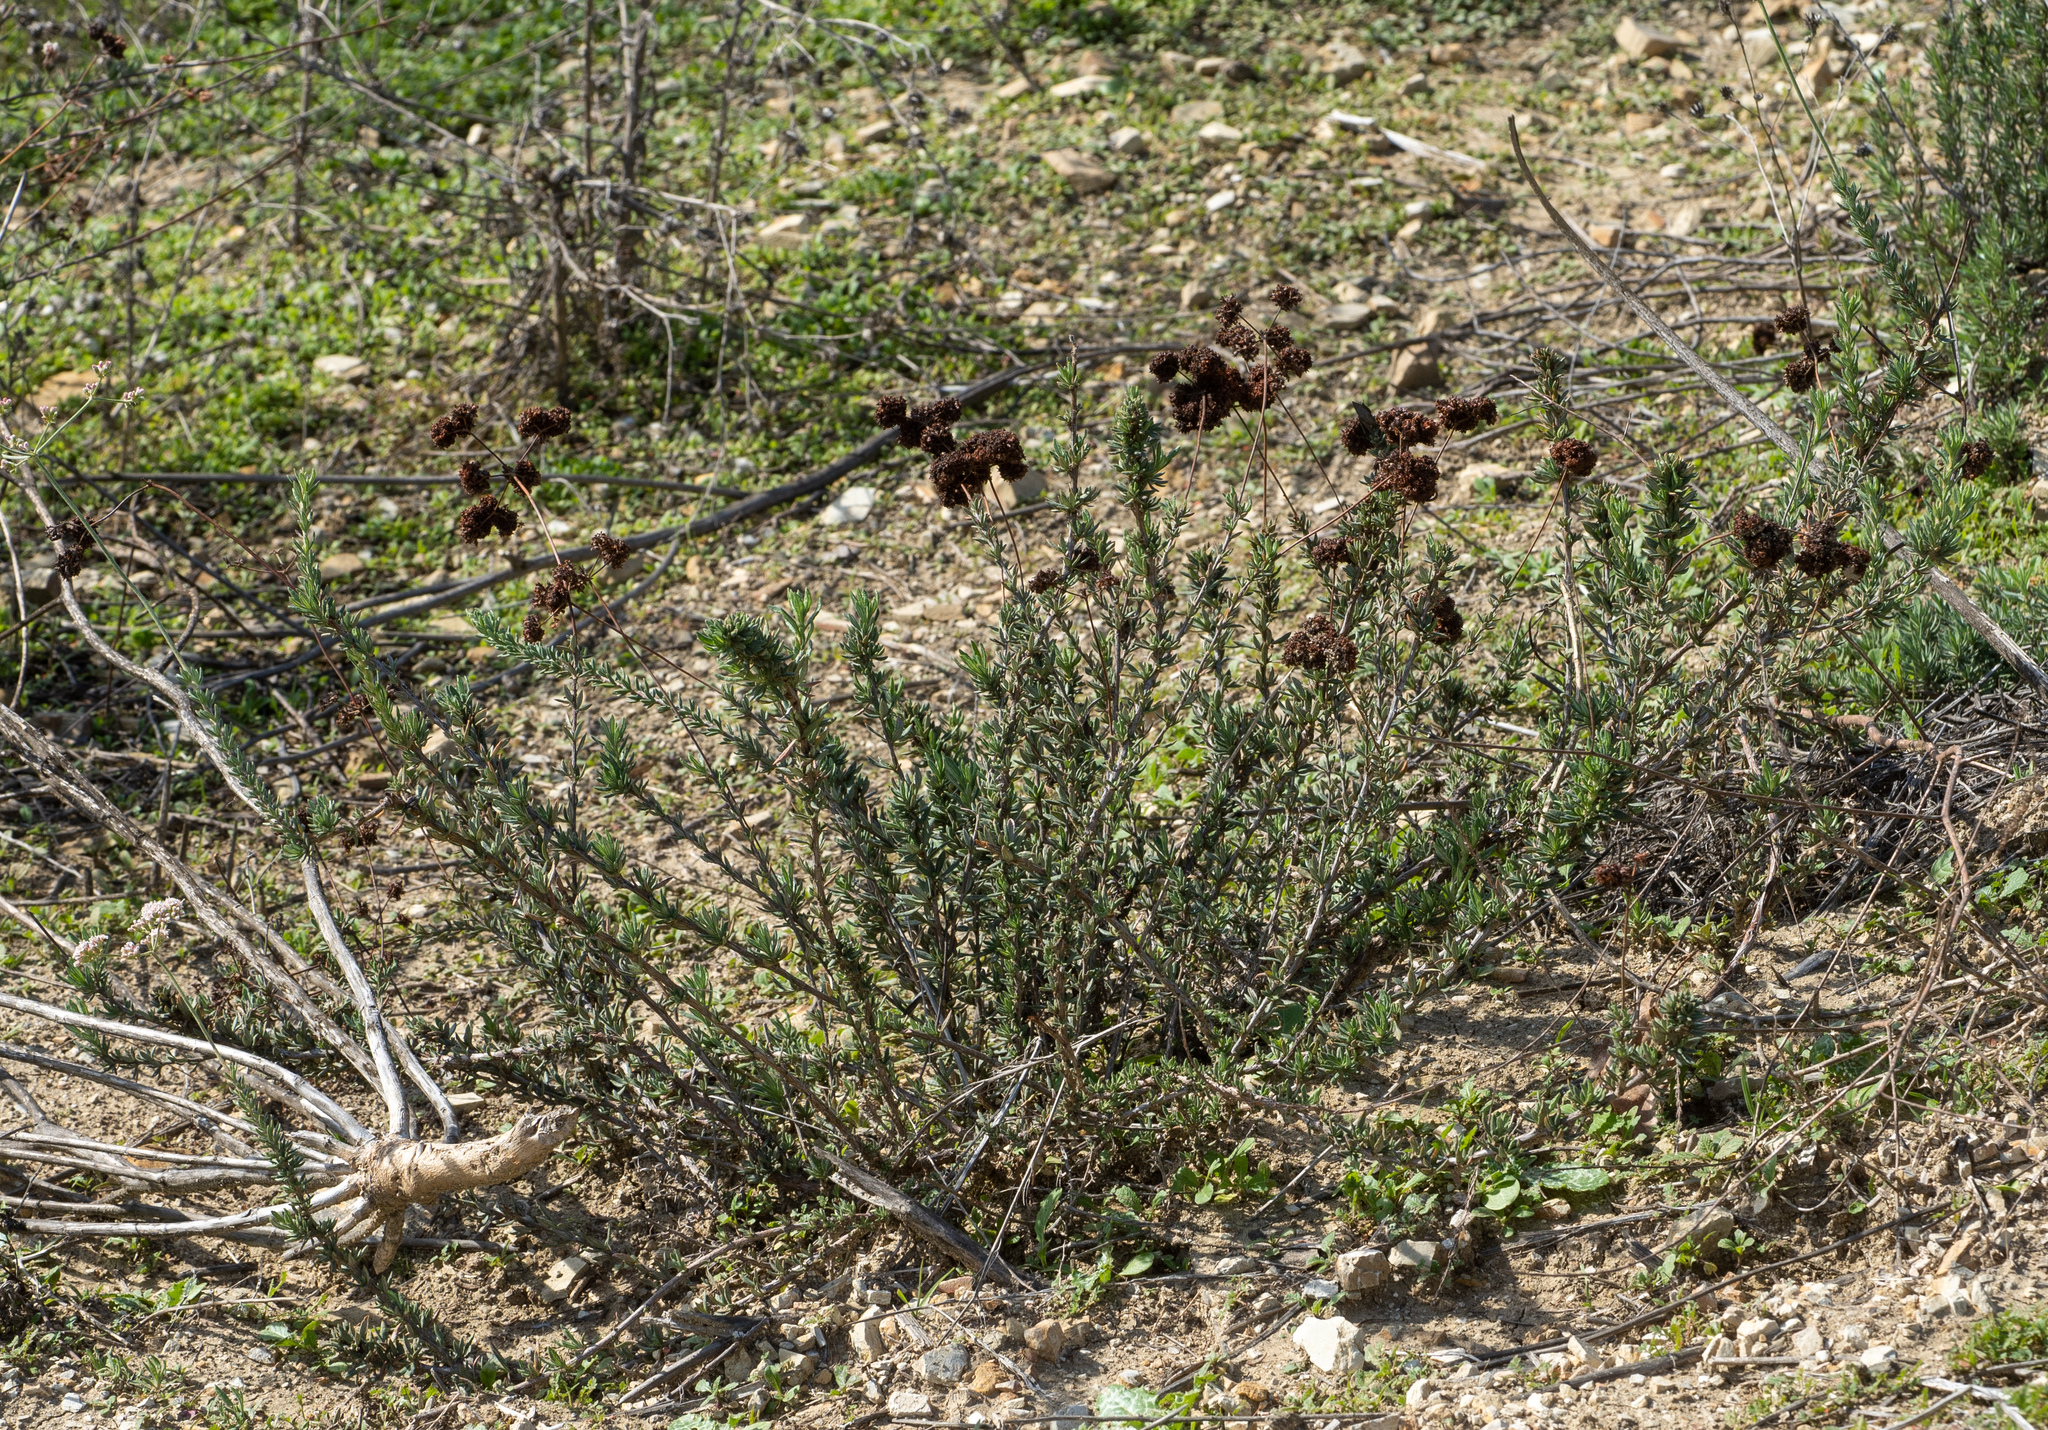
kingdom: Plantae
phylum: Tracheophyta
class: Magnoliopsida
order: Caryophyllales
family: Polygonaceae
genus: Eriogonum
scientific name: Eriogonum fasciculatum
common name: California wild buckwheat
